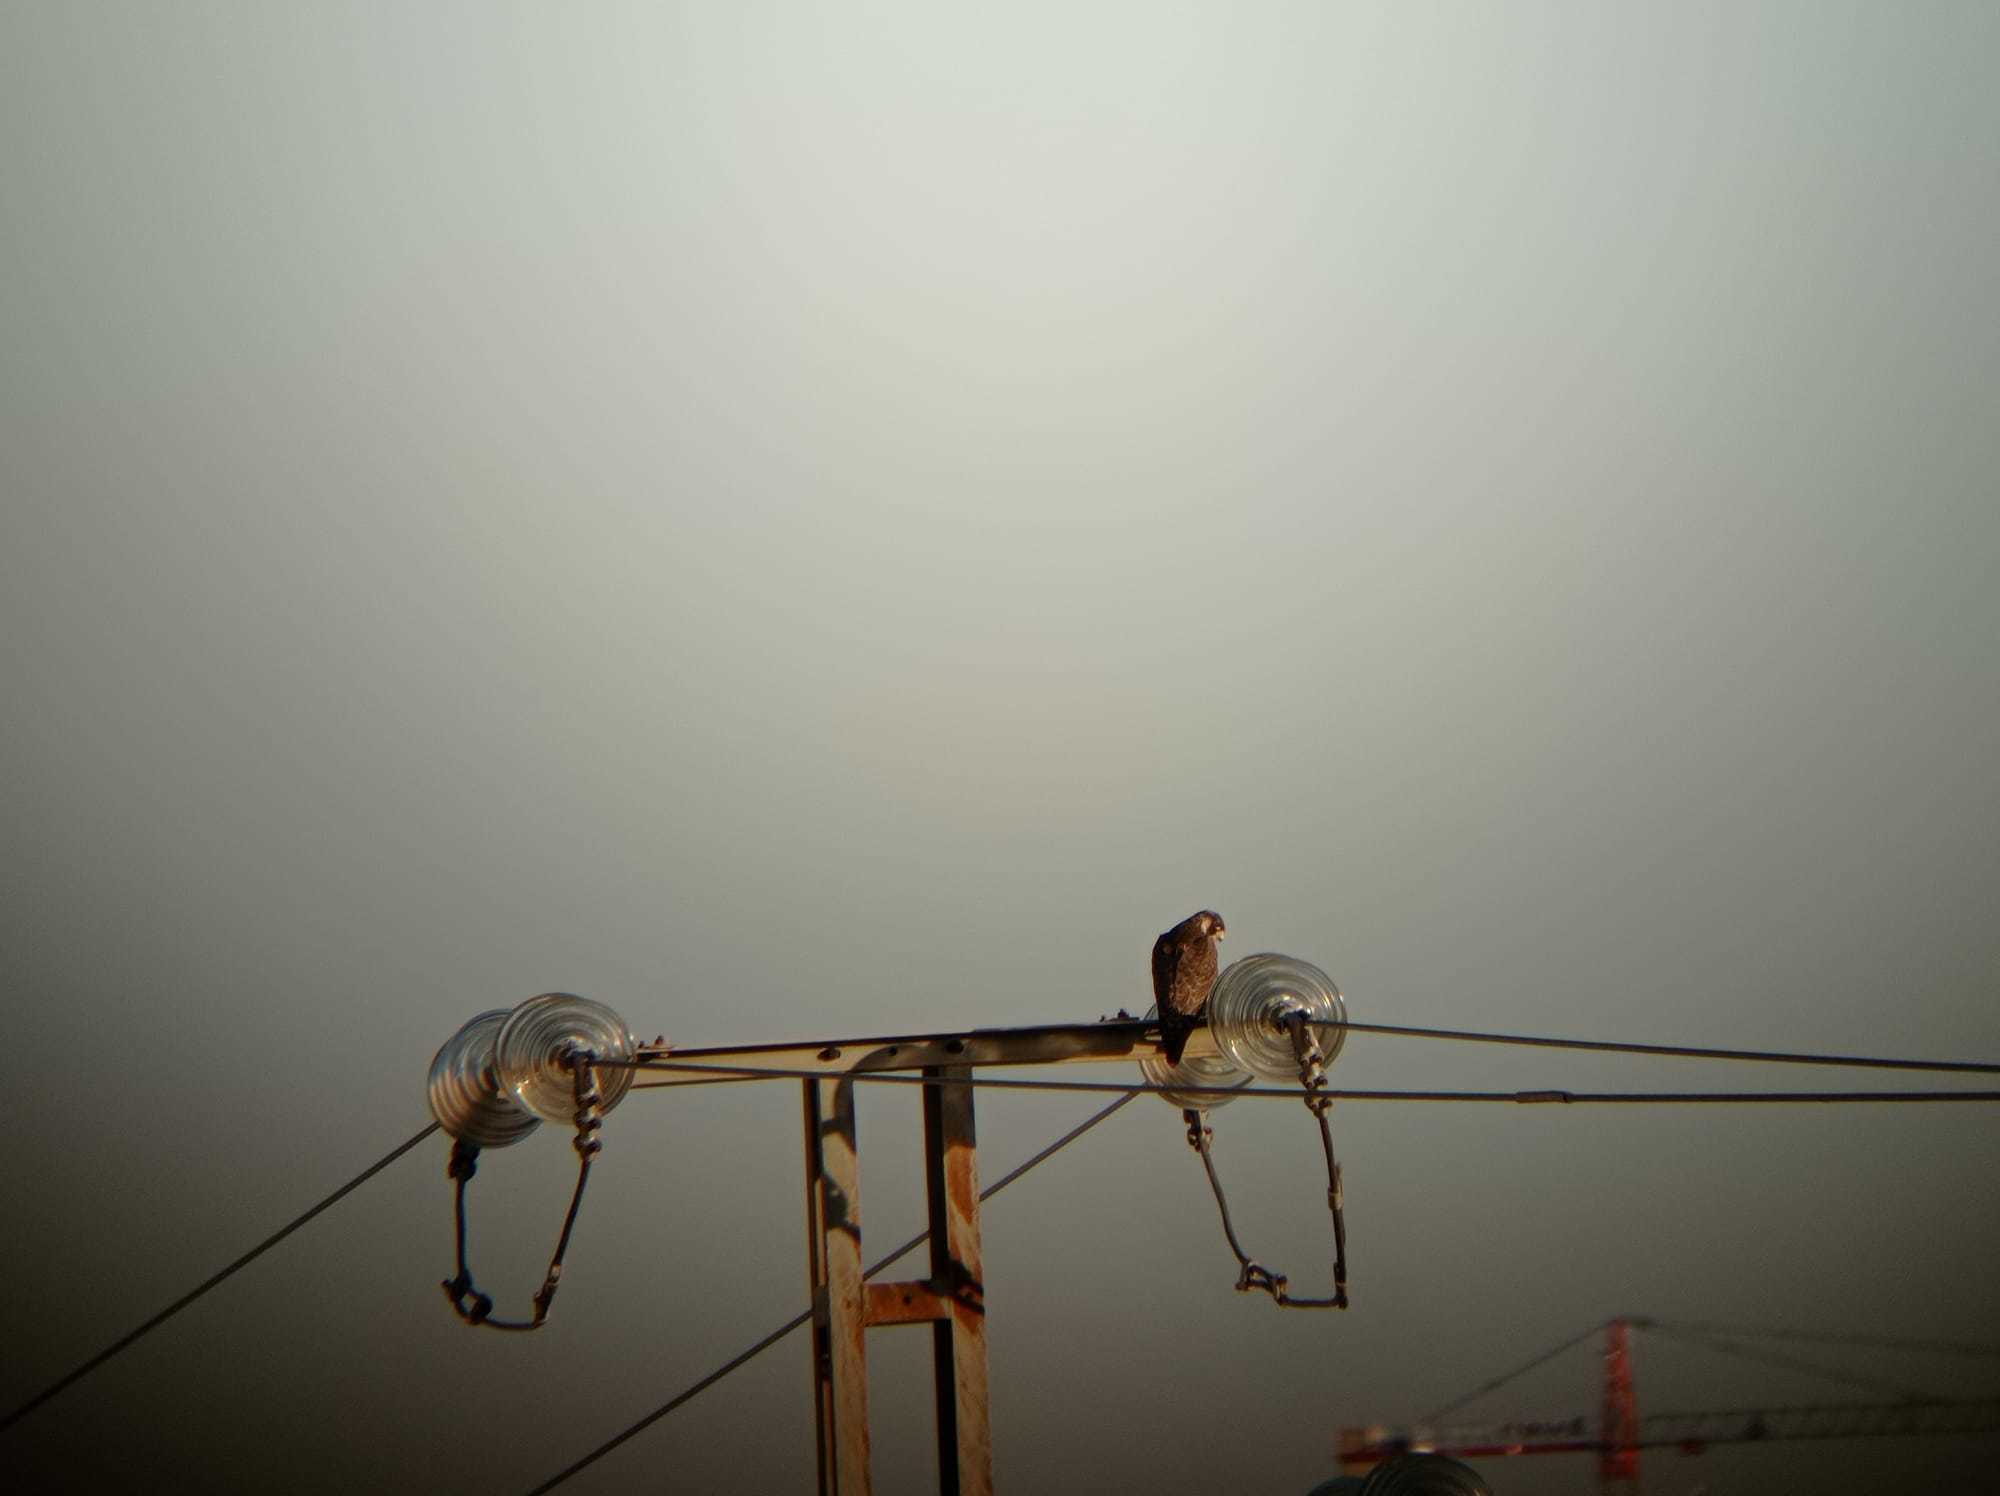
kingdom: Animalia
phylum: Chordata
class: Aves
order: Falconiformes
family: Falconidae
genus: Falco
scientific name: Falco peregrinus
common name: Peregrine falcon
